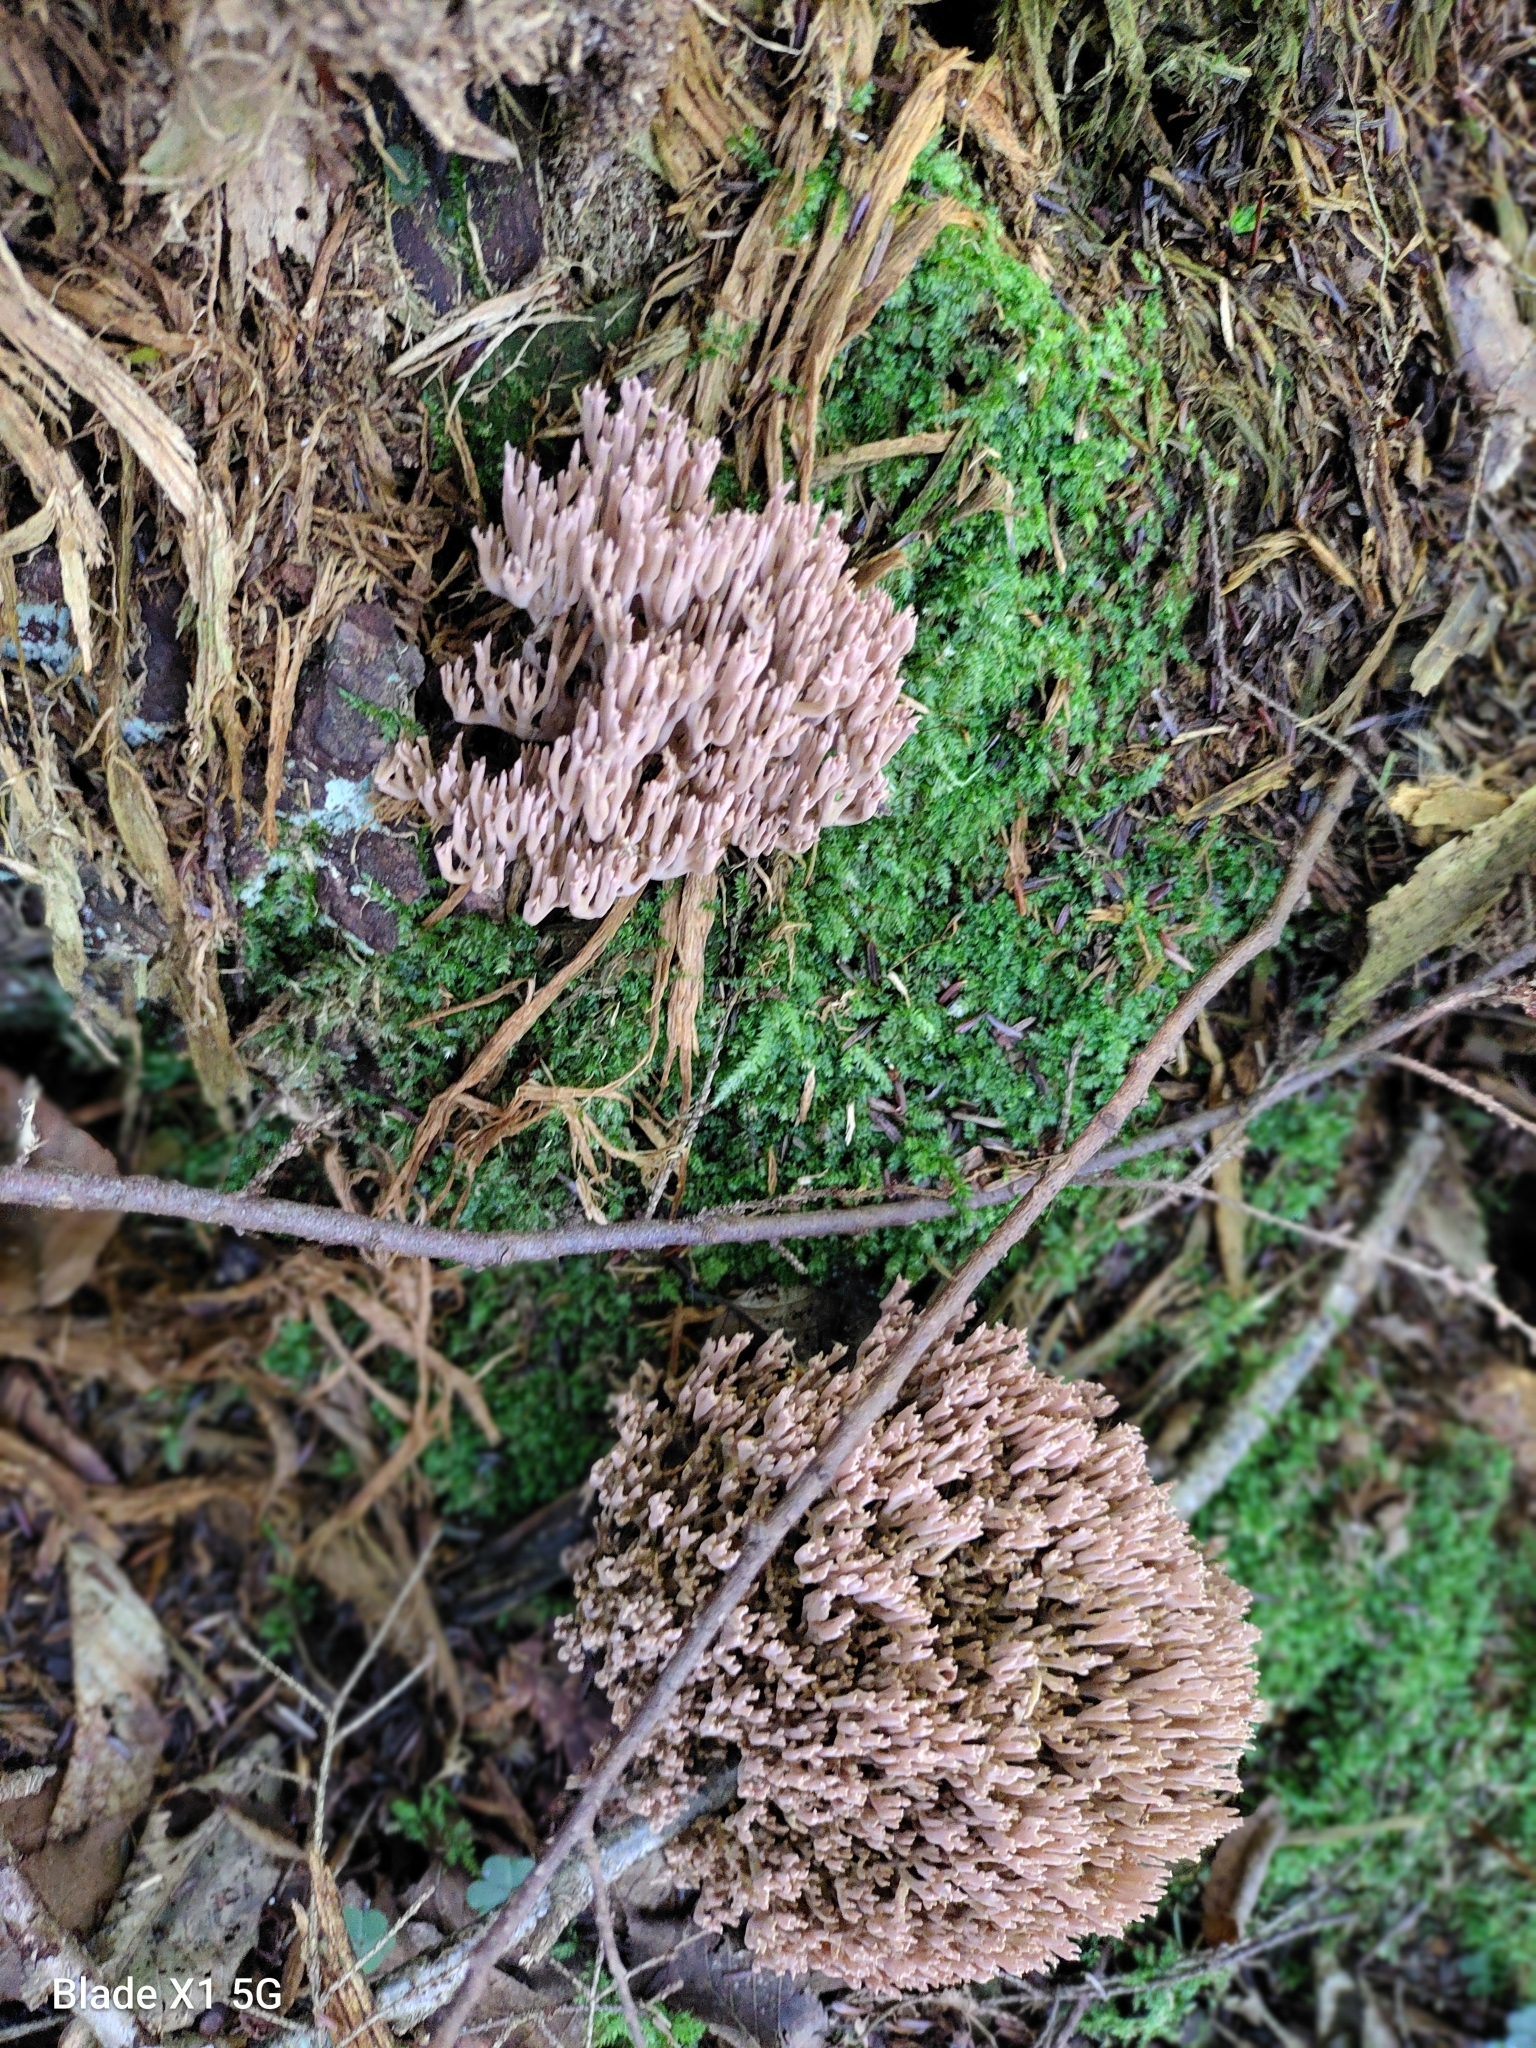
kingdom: Fungi
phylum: Basidiomycota
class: Agaricomycetes
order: Gomphales
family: Gomphaceae
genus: Ramaria
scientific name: Ramaria rubella
